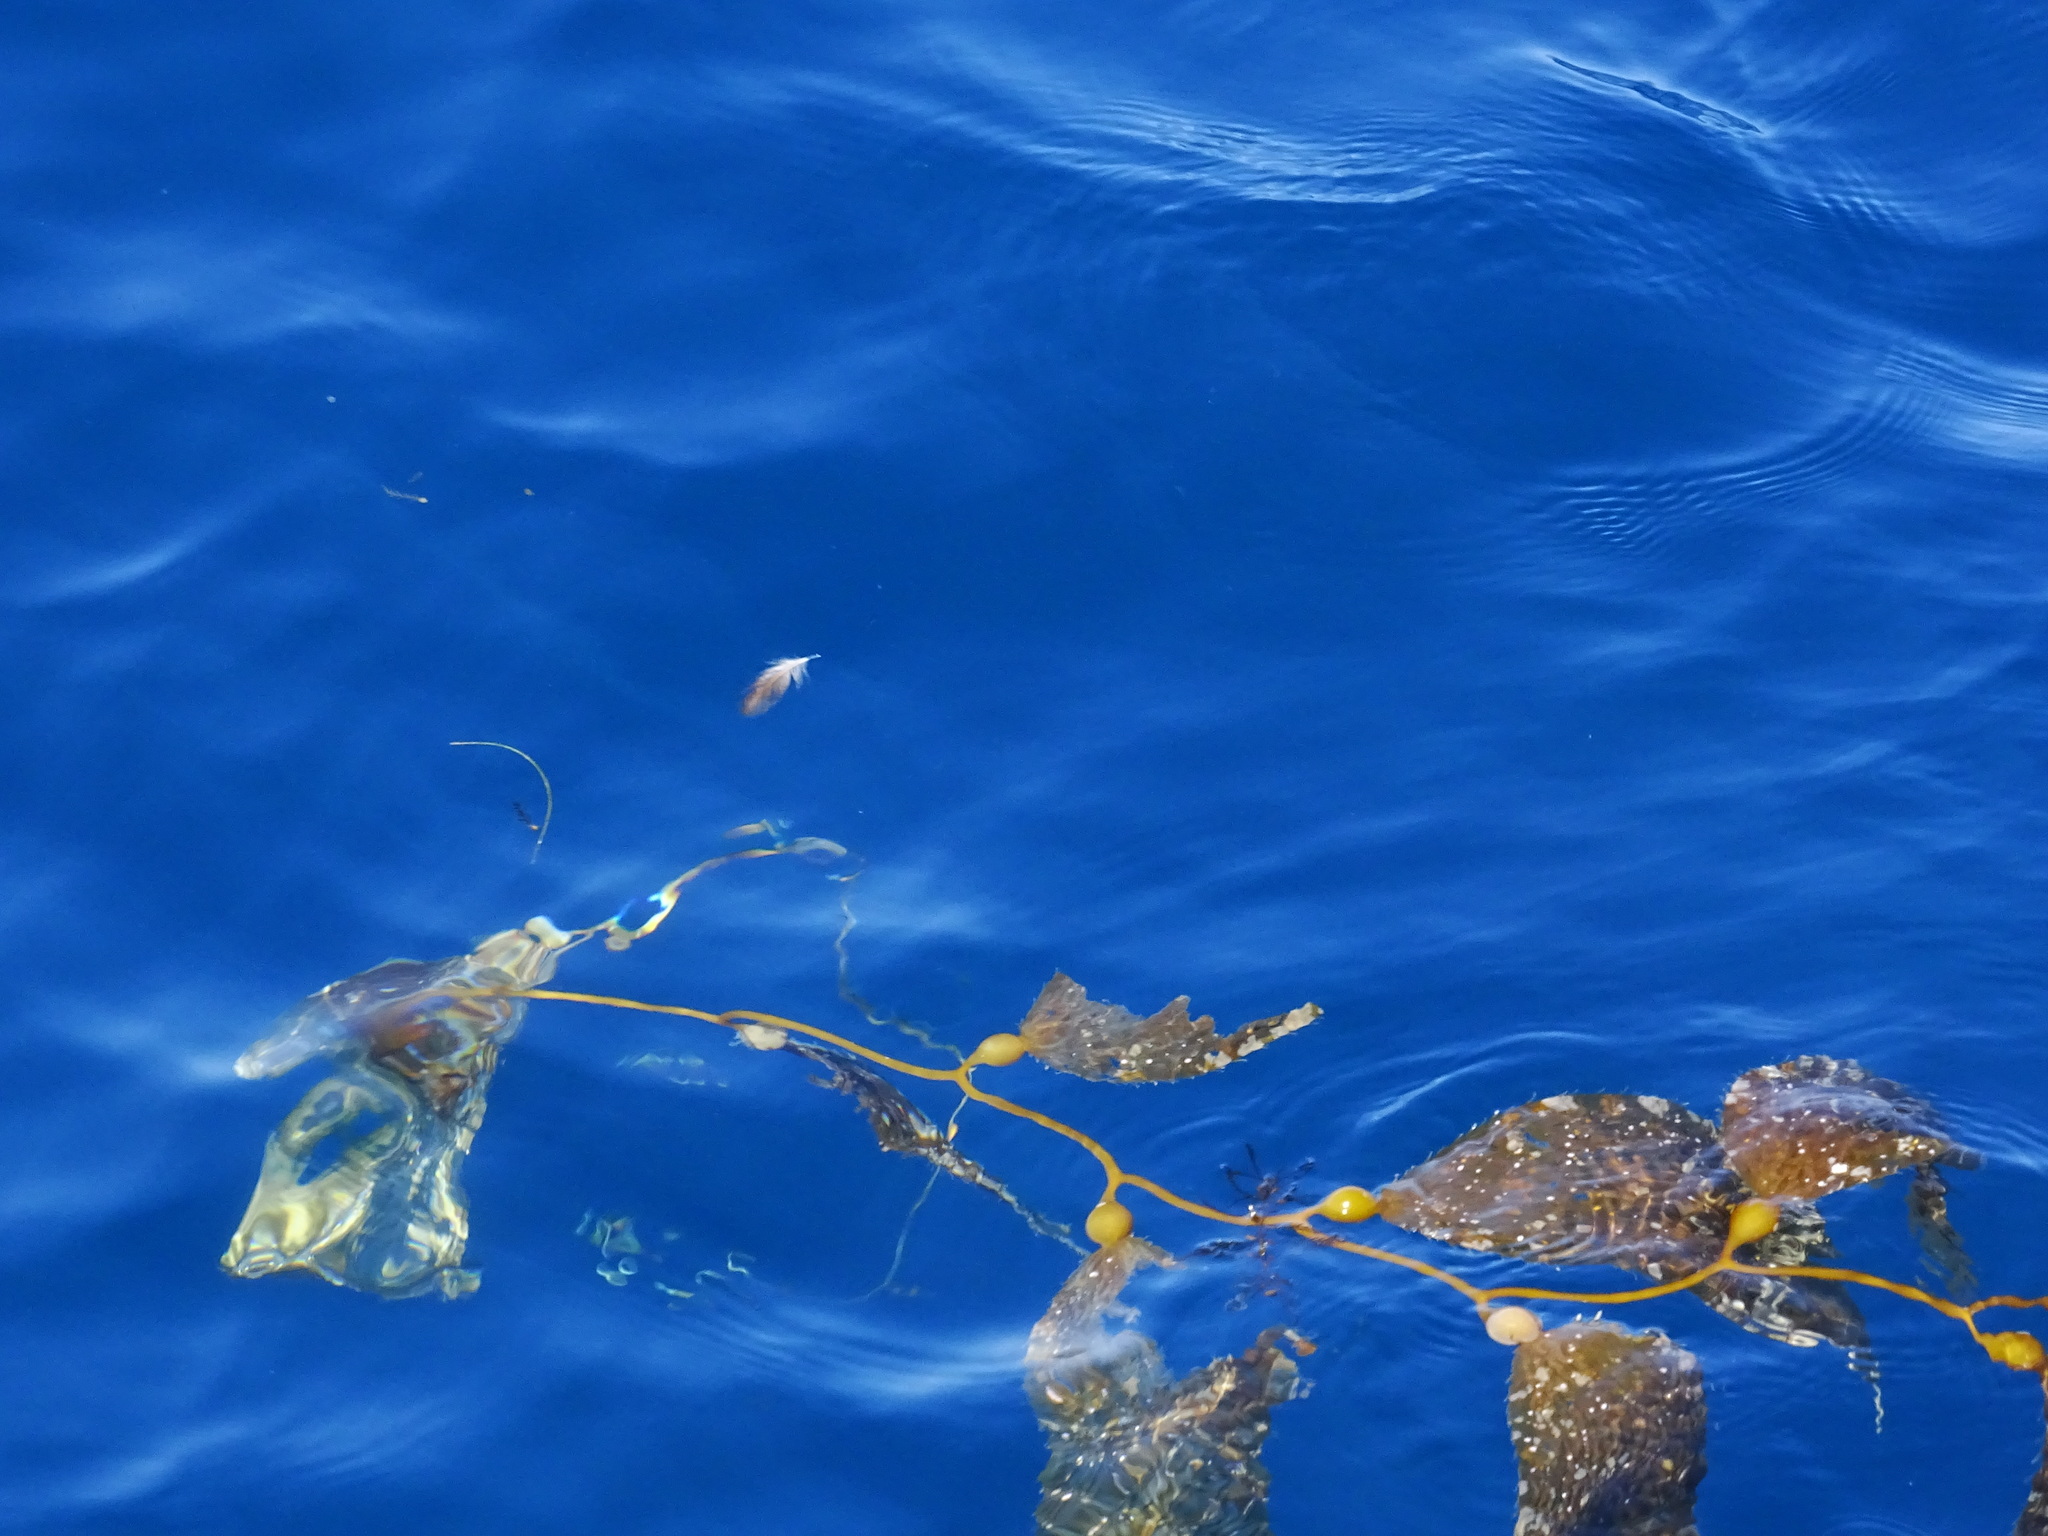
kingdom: Chromista
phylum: Ochrophyta
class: Phaeophyceae
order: Laminariales
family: Laminariaceae
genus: Macrocystis
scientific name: Macrocystis pyrifera
